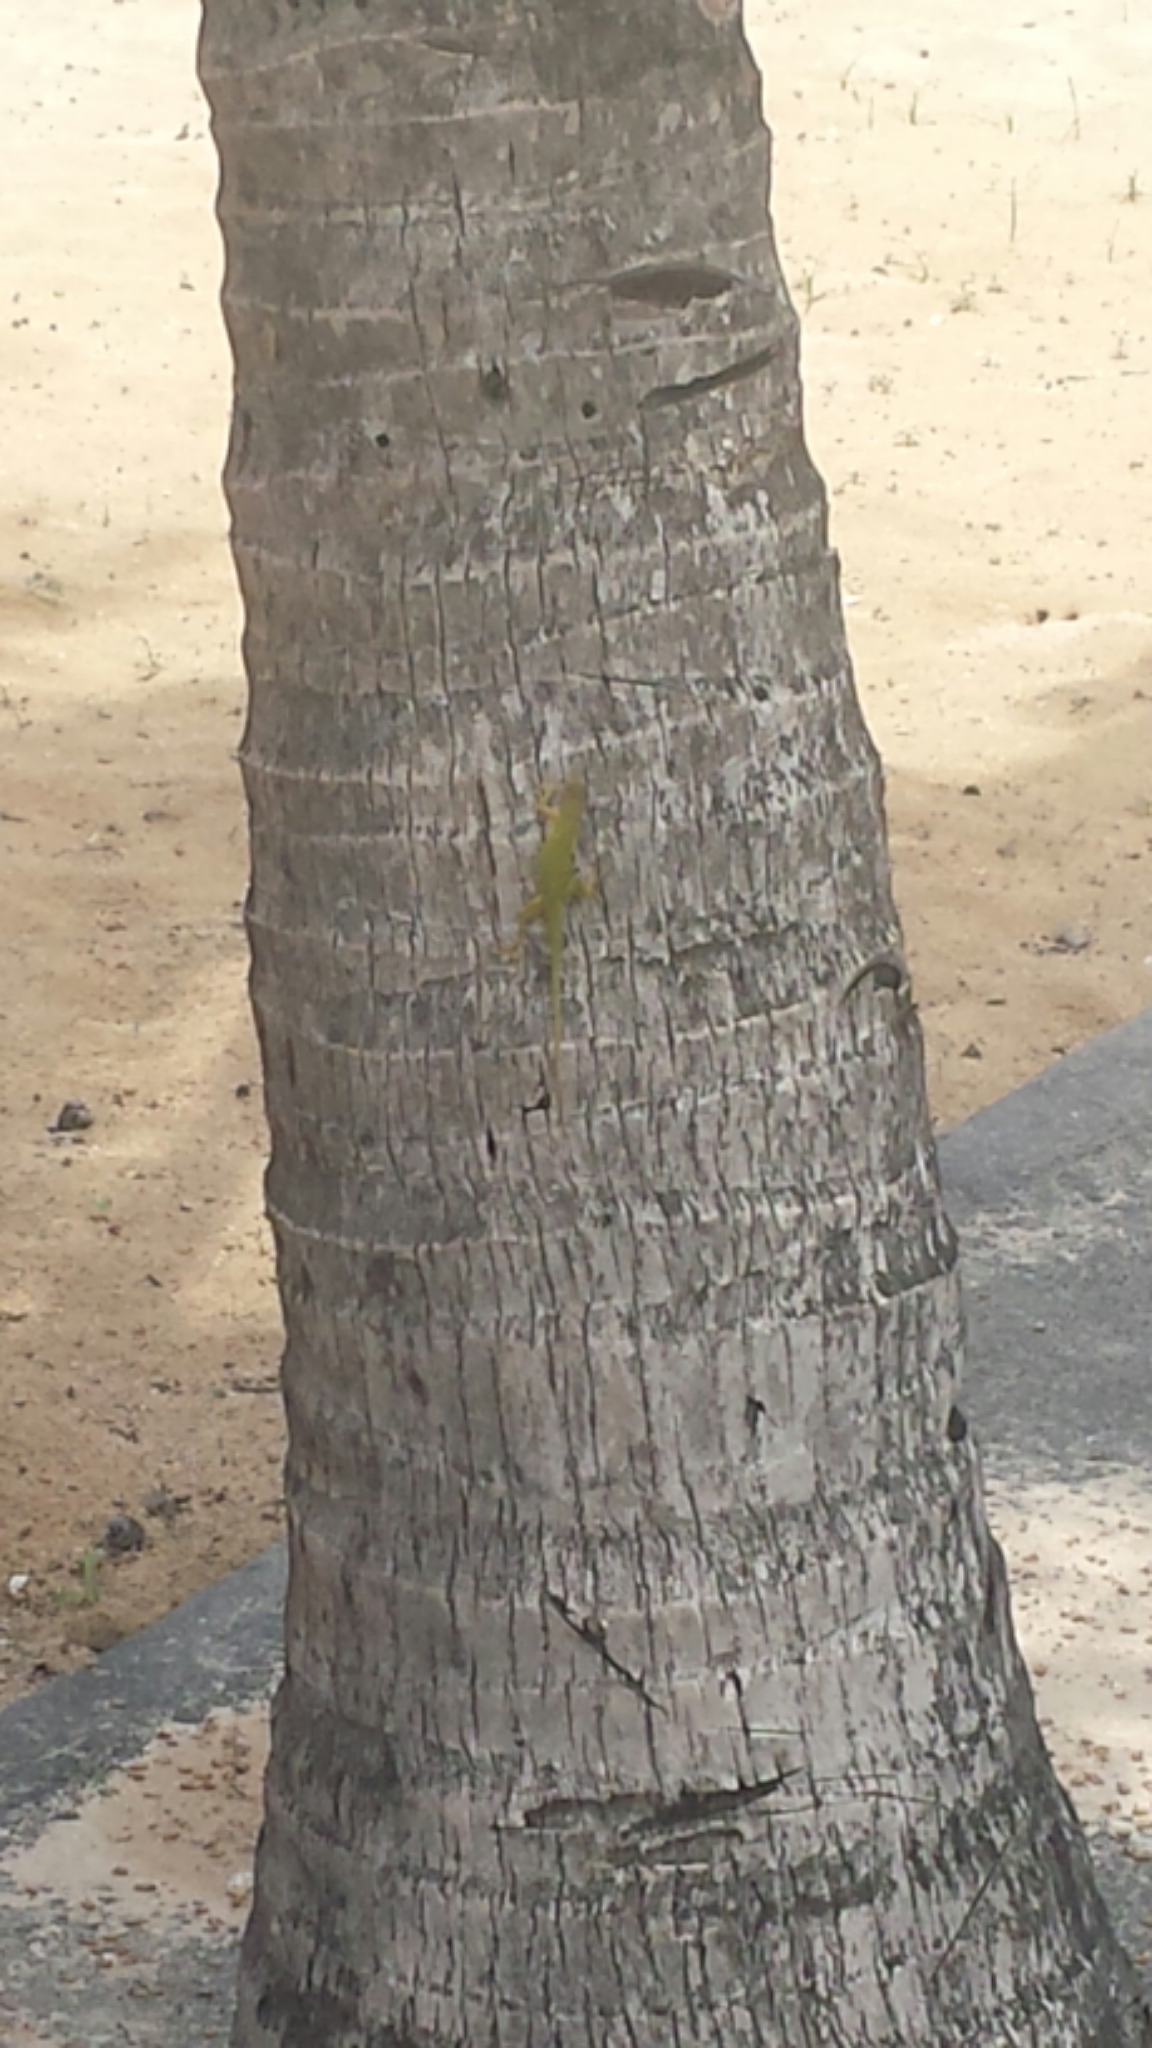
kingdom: Animalia
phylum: Chordata
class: Squamata
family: Dactyloidae
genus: Anolis
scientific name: Anolis porcatus
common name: Cuban green anole
